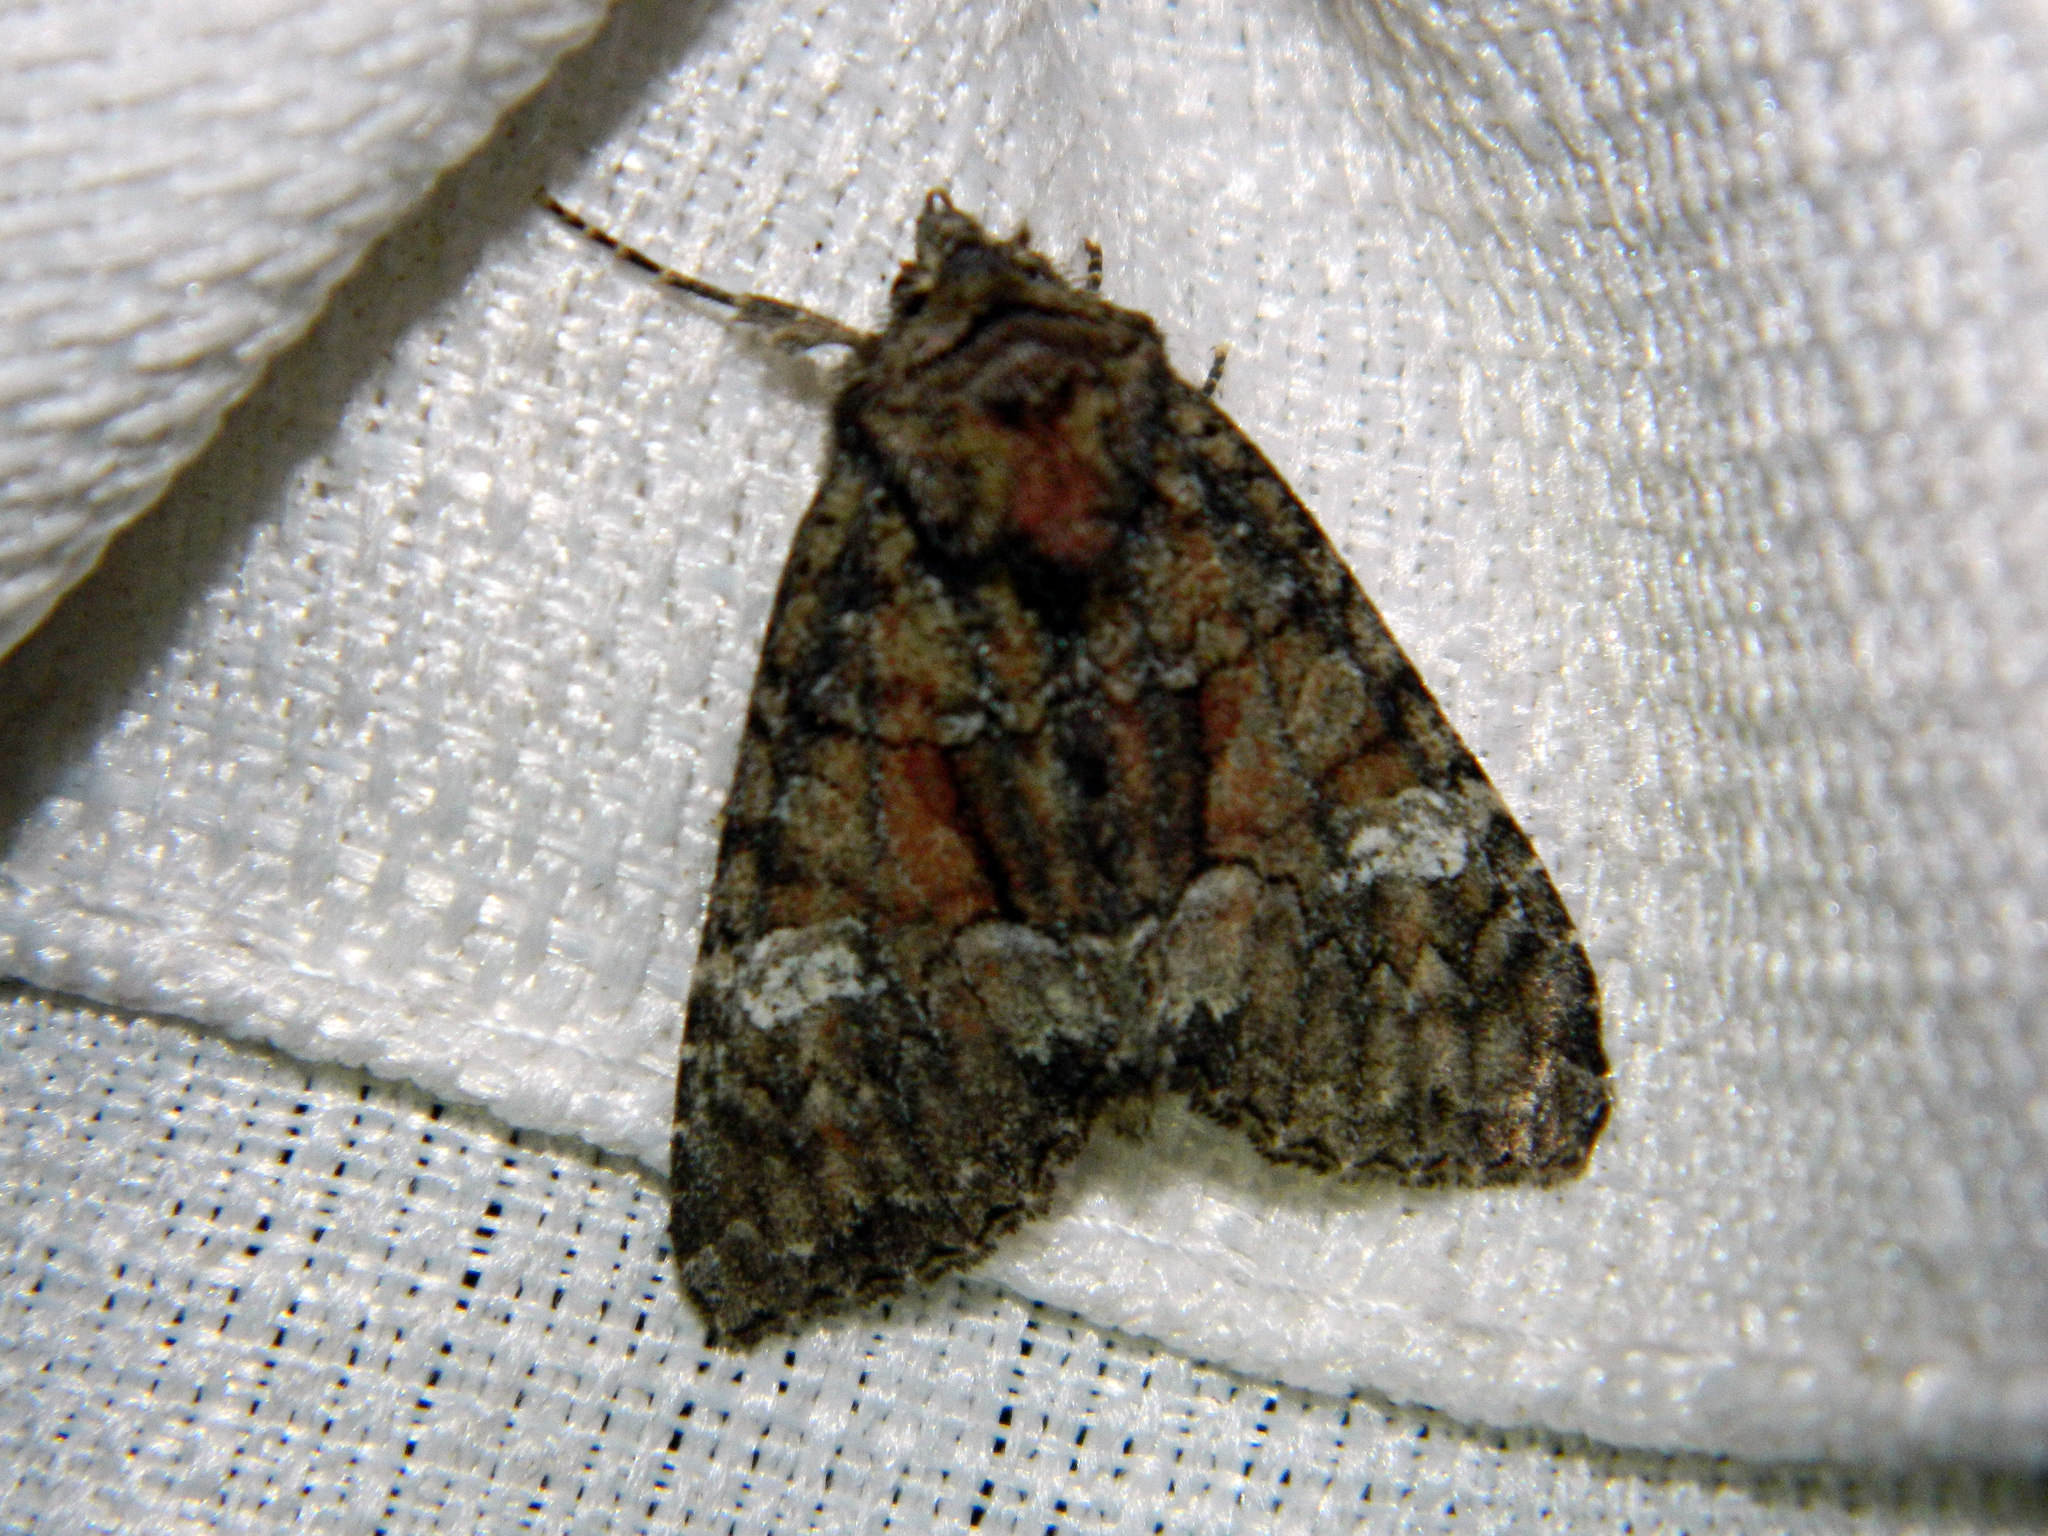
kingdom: Animalia
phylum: Arthropoda
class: Insecta
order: Lepidoptera
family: Noctuidae
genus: Fishia
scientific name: Fishia illocata
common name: Wandering brocade moth
